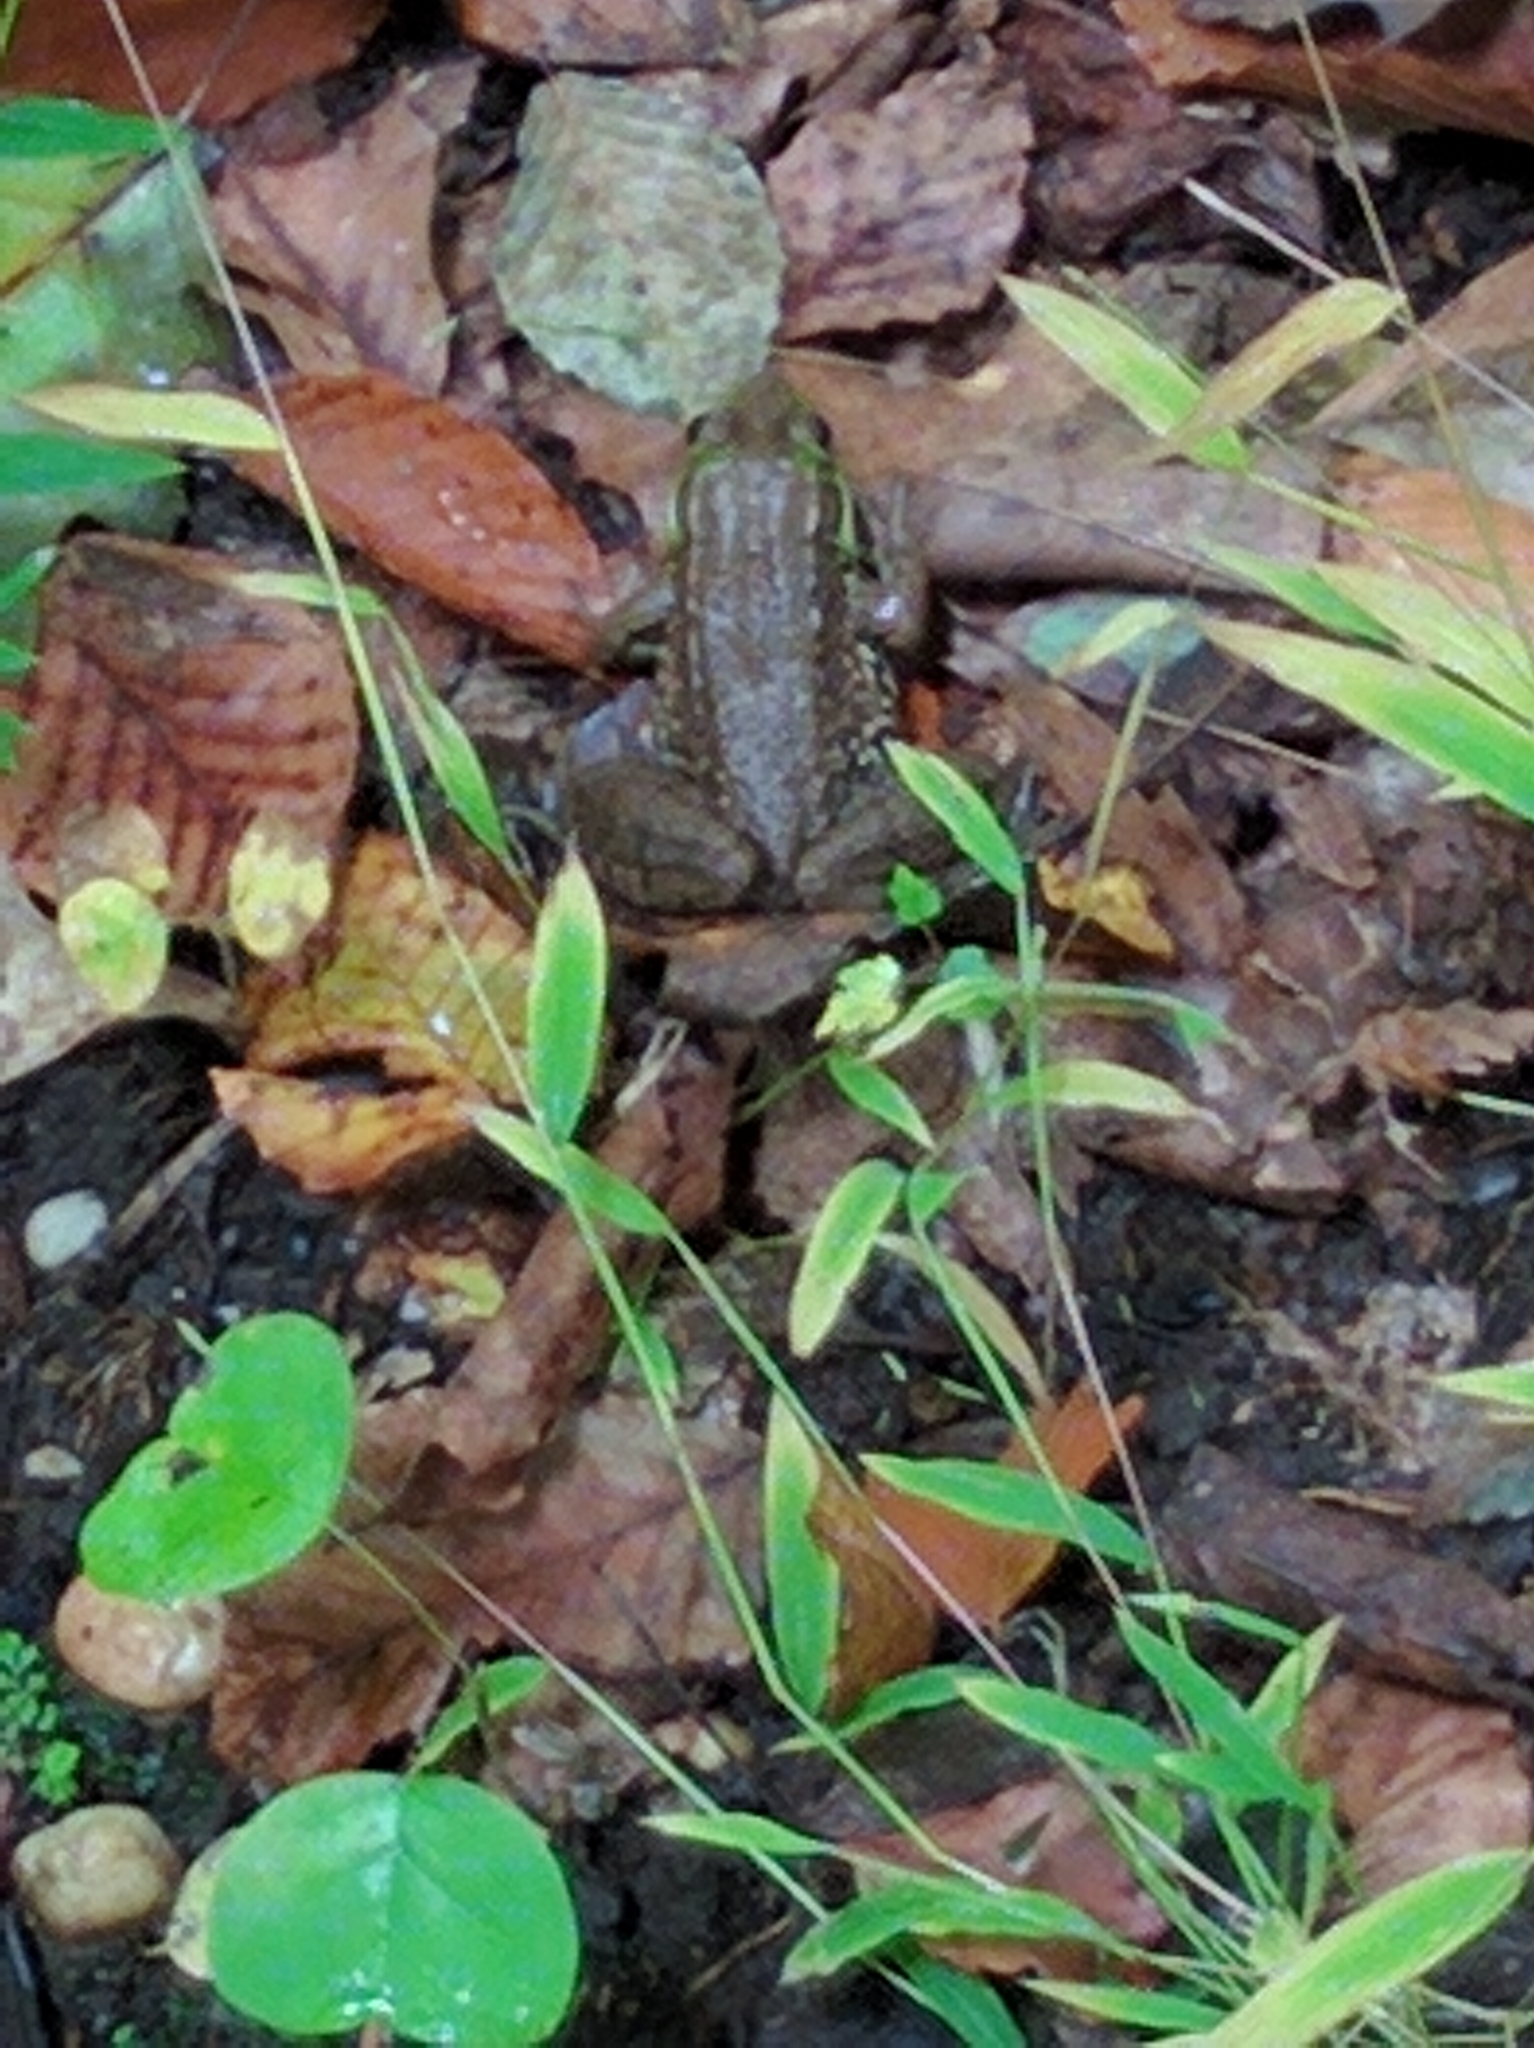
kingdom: Animalia
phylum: Chordata
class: Amphibia
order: Anura
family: Ranidae
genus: Lithobates
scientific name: Lithobates clamitans
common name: Green frog
